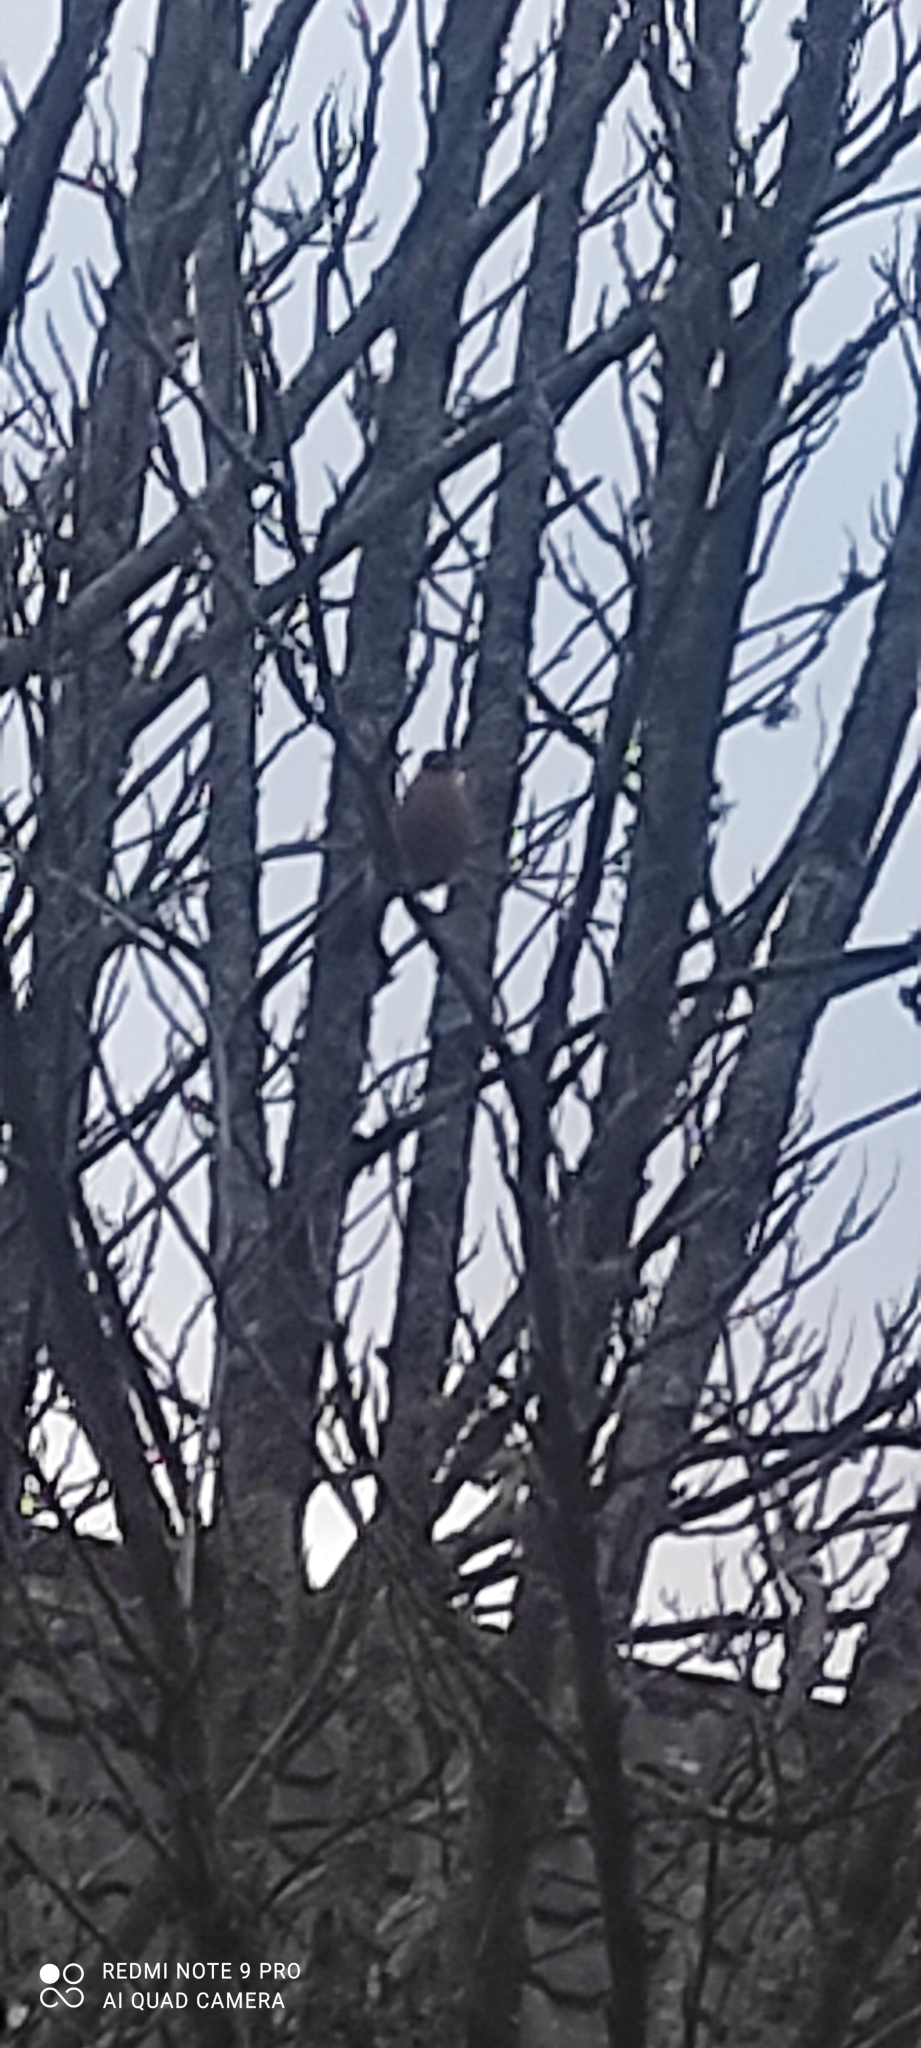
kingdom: Animalia
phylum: Chordata
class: Aves
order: Passeriformes
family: Fringillidae
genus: Pyrrhula
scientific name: Pyrrhula pyrrhula
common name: Eurasian bullfinch
